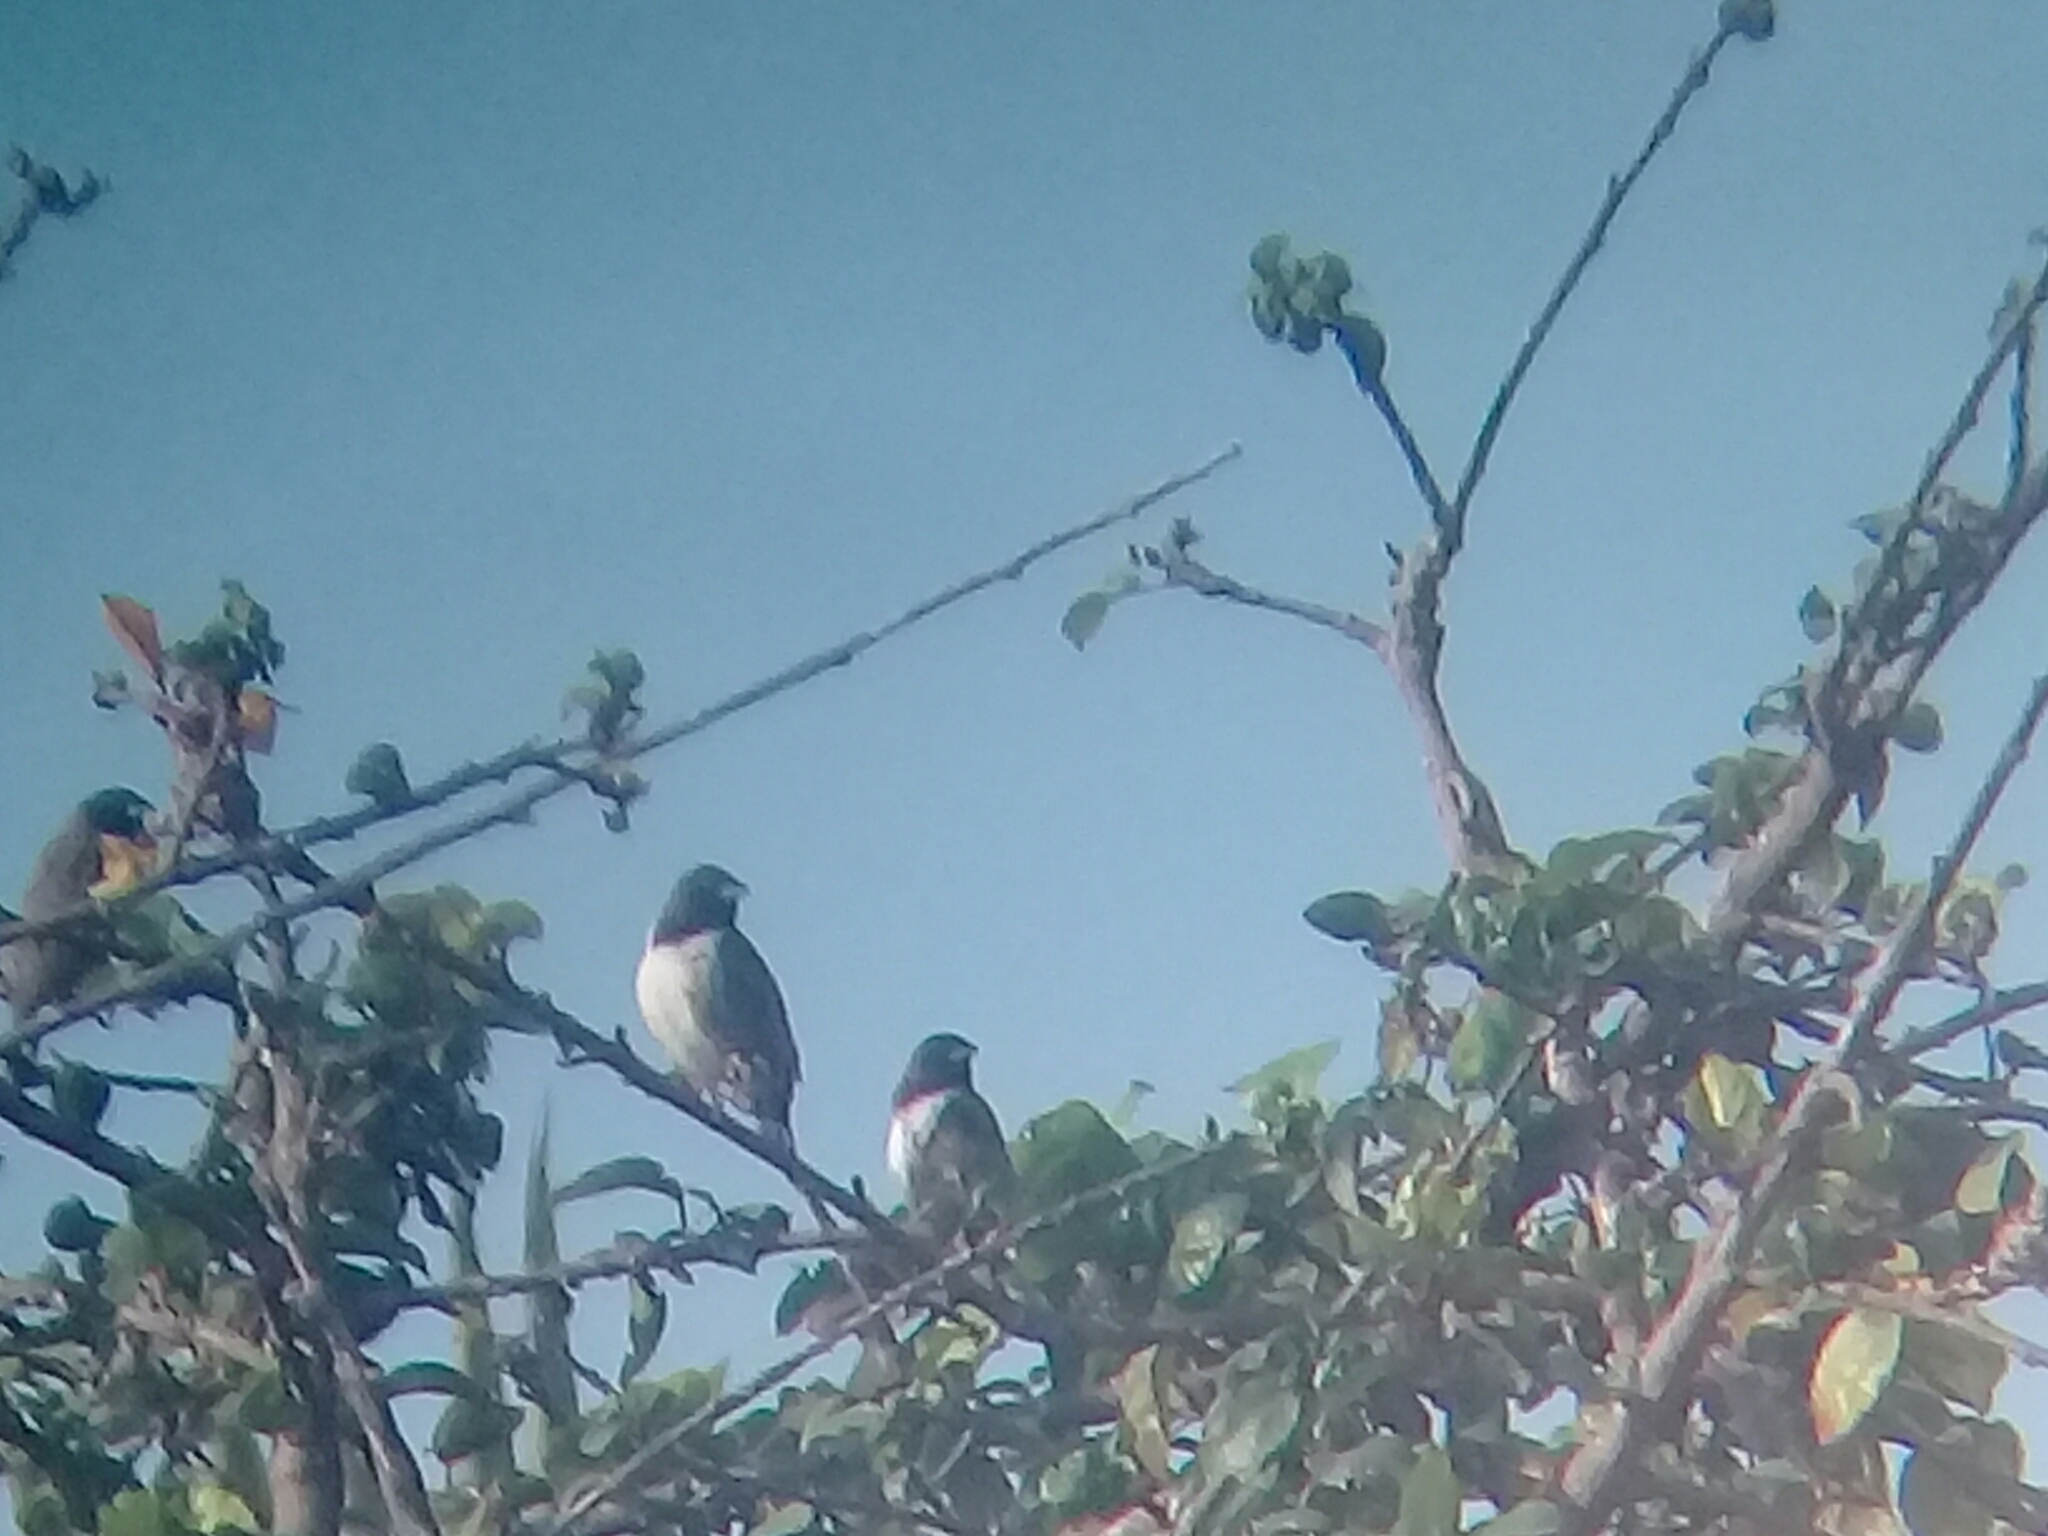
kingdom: Animalia
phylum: Chordata
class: Aves
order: Passeriformes
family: Estrildidae
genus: Lonchura
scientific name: Lonchura cucullata
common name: Bronze mannikin
